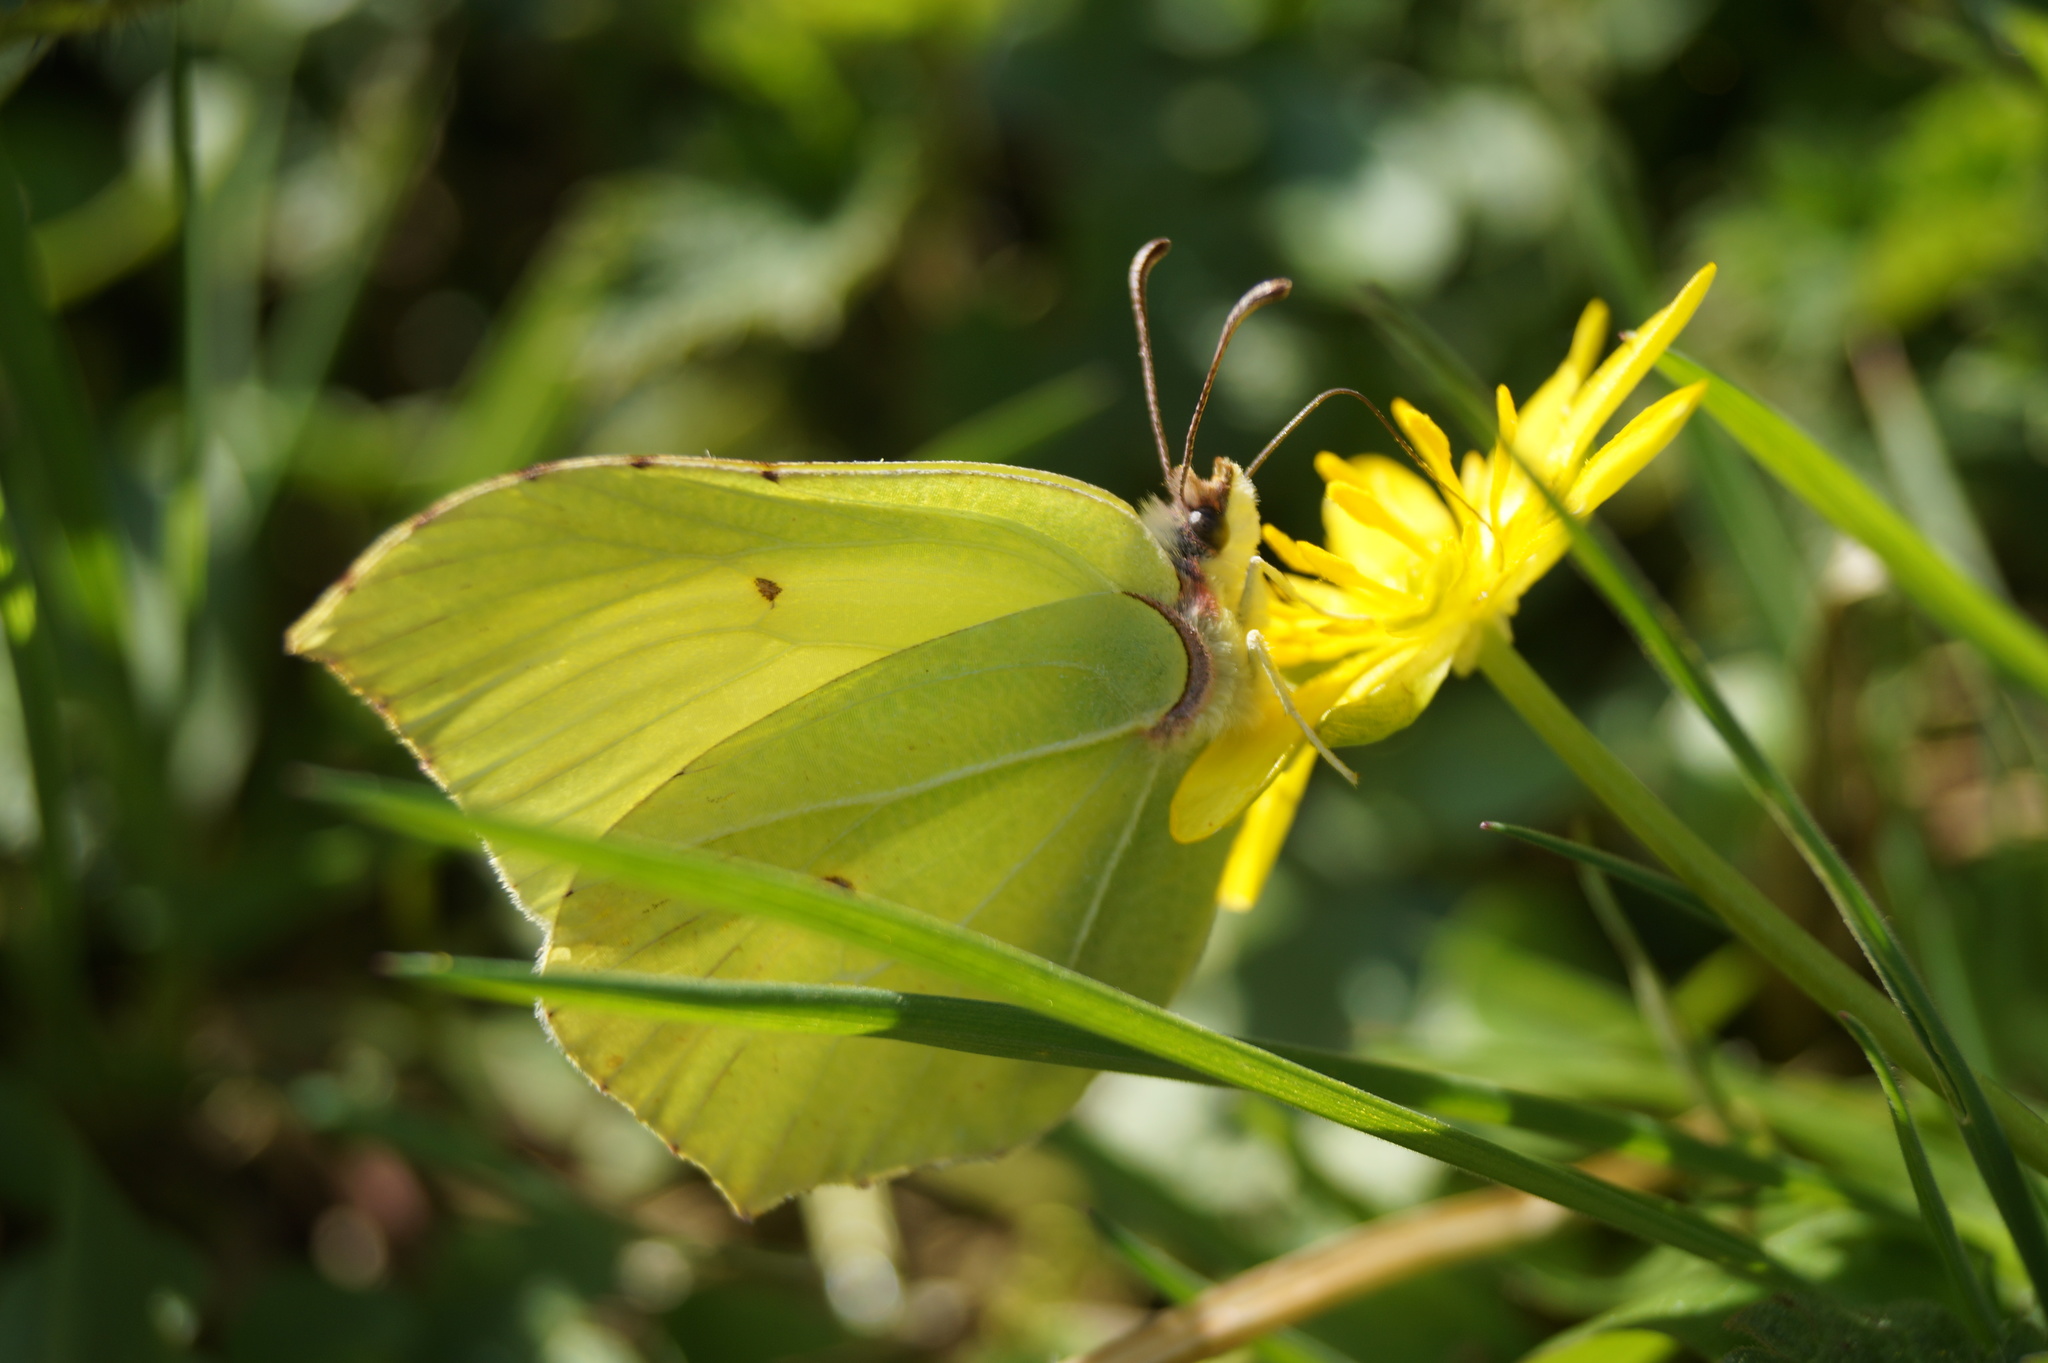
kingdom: Animalia
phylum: Arthropoda
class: Insecta
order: Lepidoptera
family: Pieridae
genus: Gonepteryx
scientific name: Gonepteryx rhamni
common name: Brimstone
